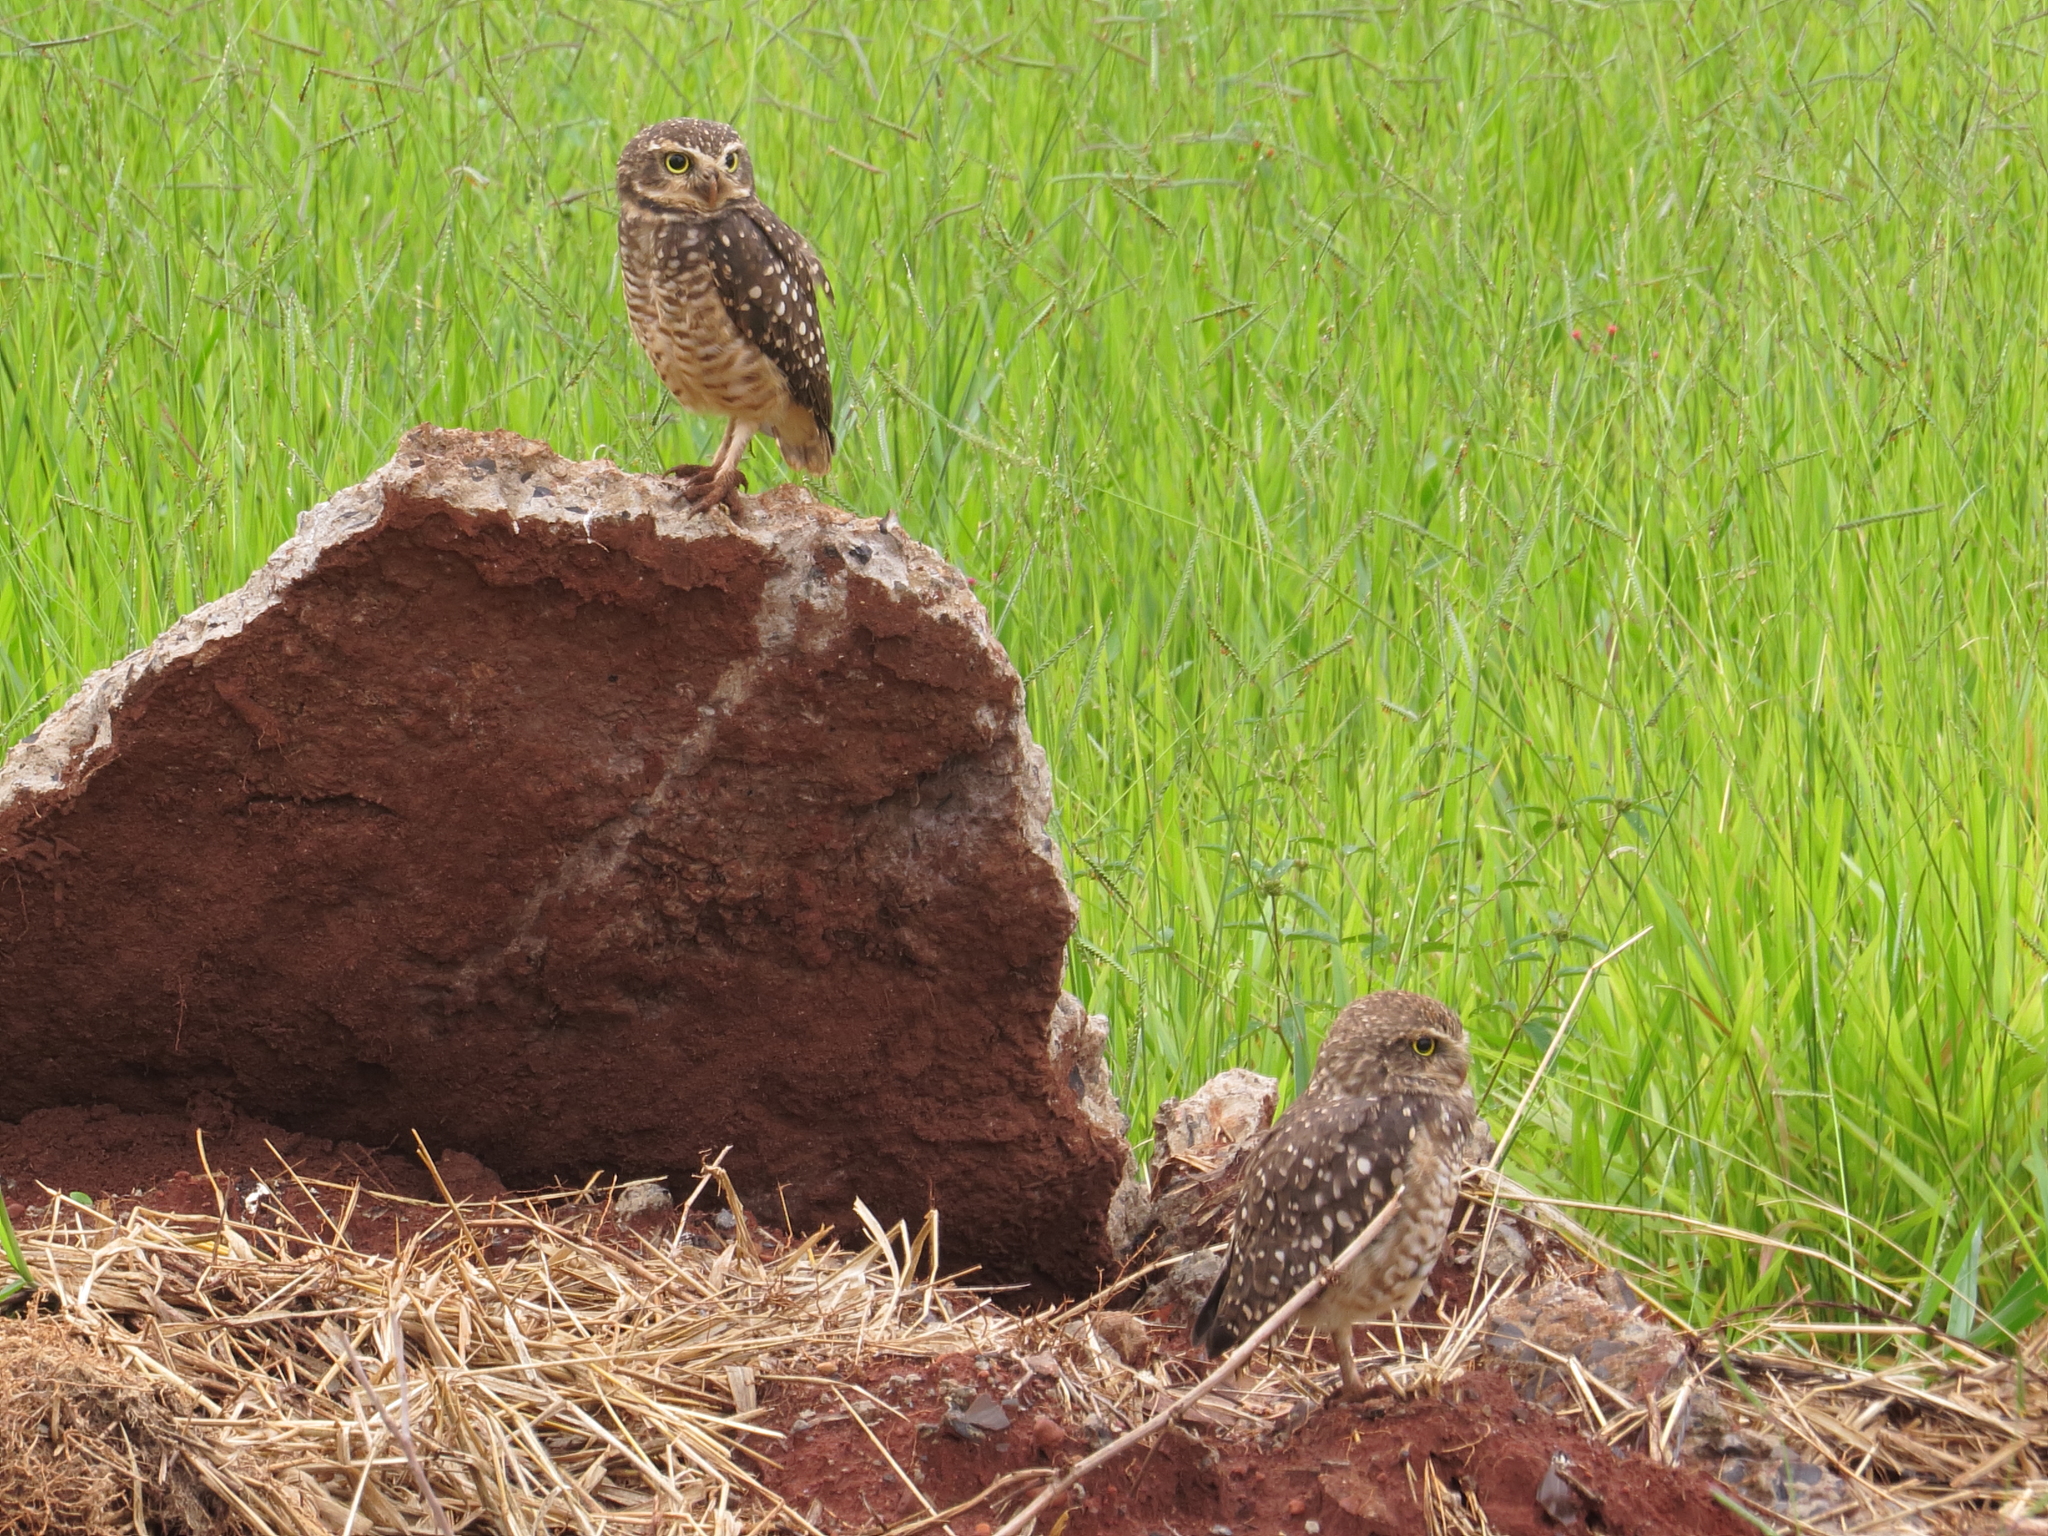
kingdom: Animalia
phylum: Chordata
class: Aves
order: Strigiformes
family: Strigidae
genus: Athene
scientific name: Athene cunicularia
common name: Burrowing owl
